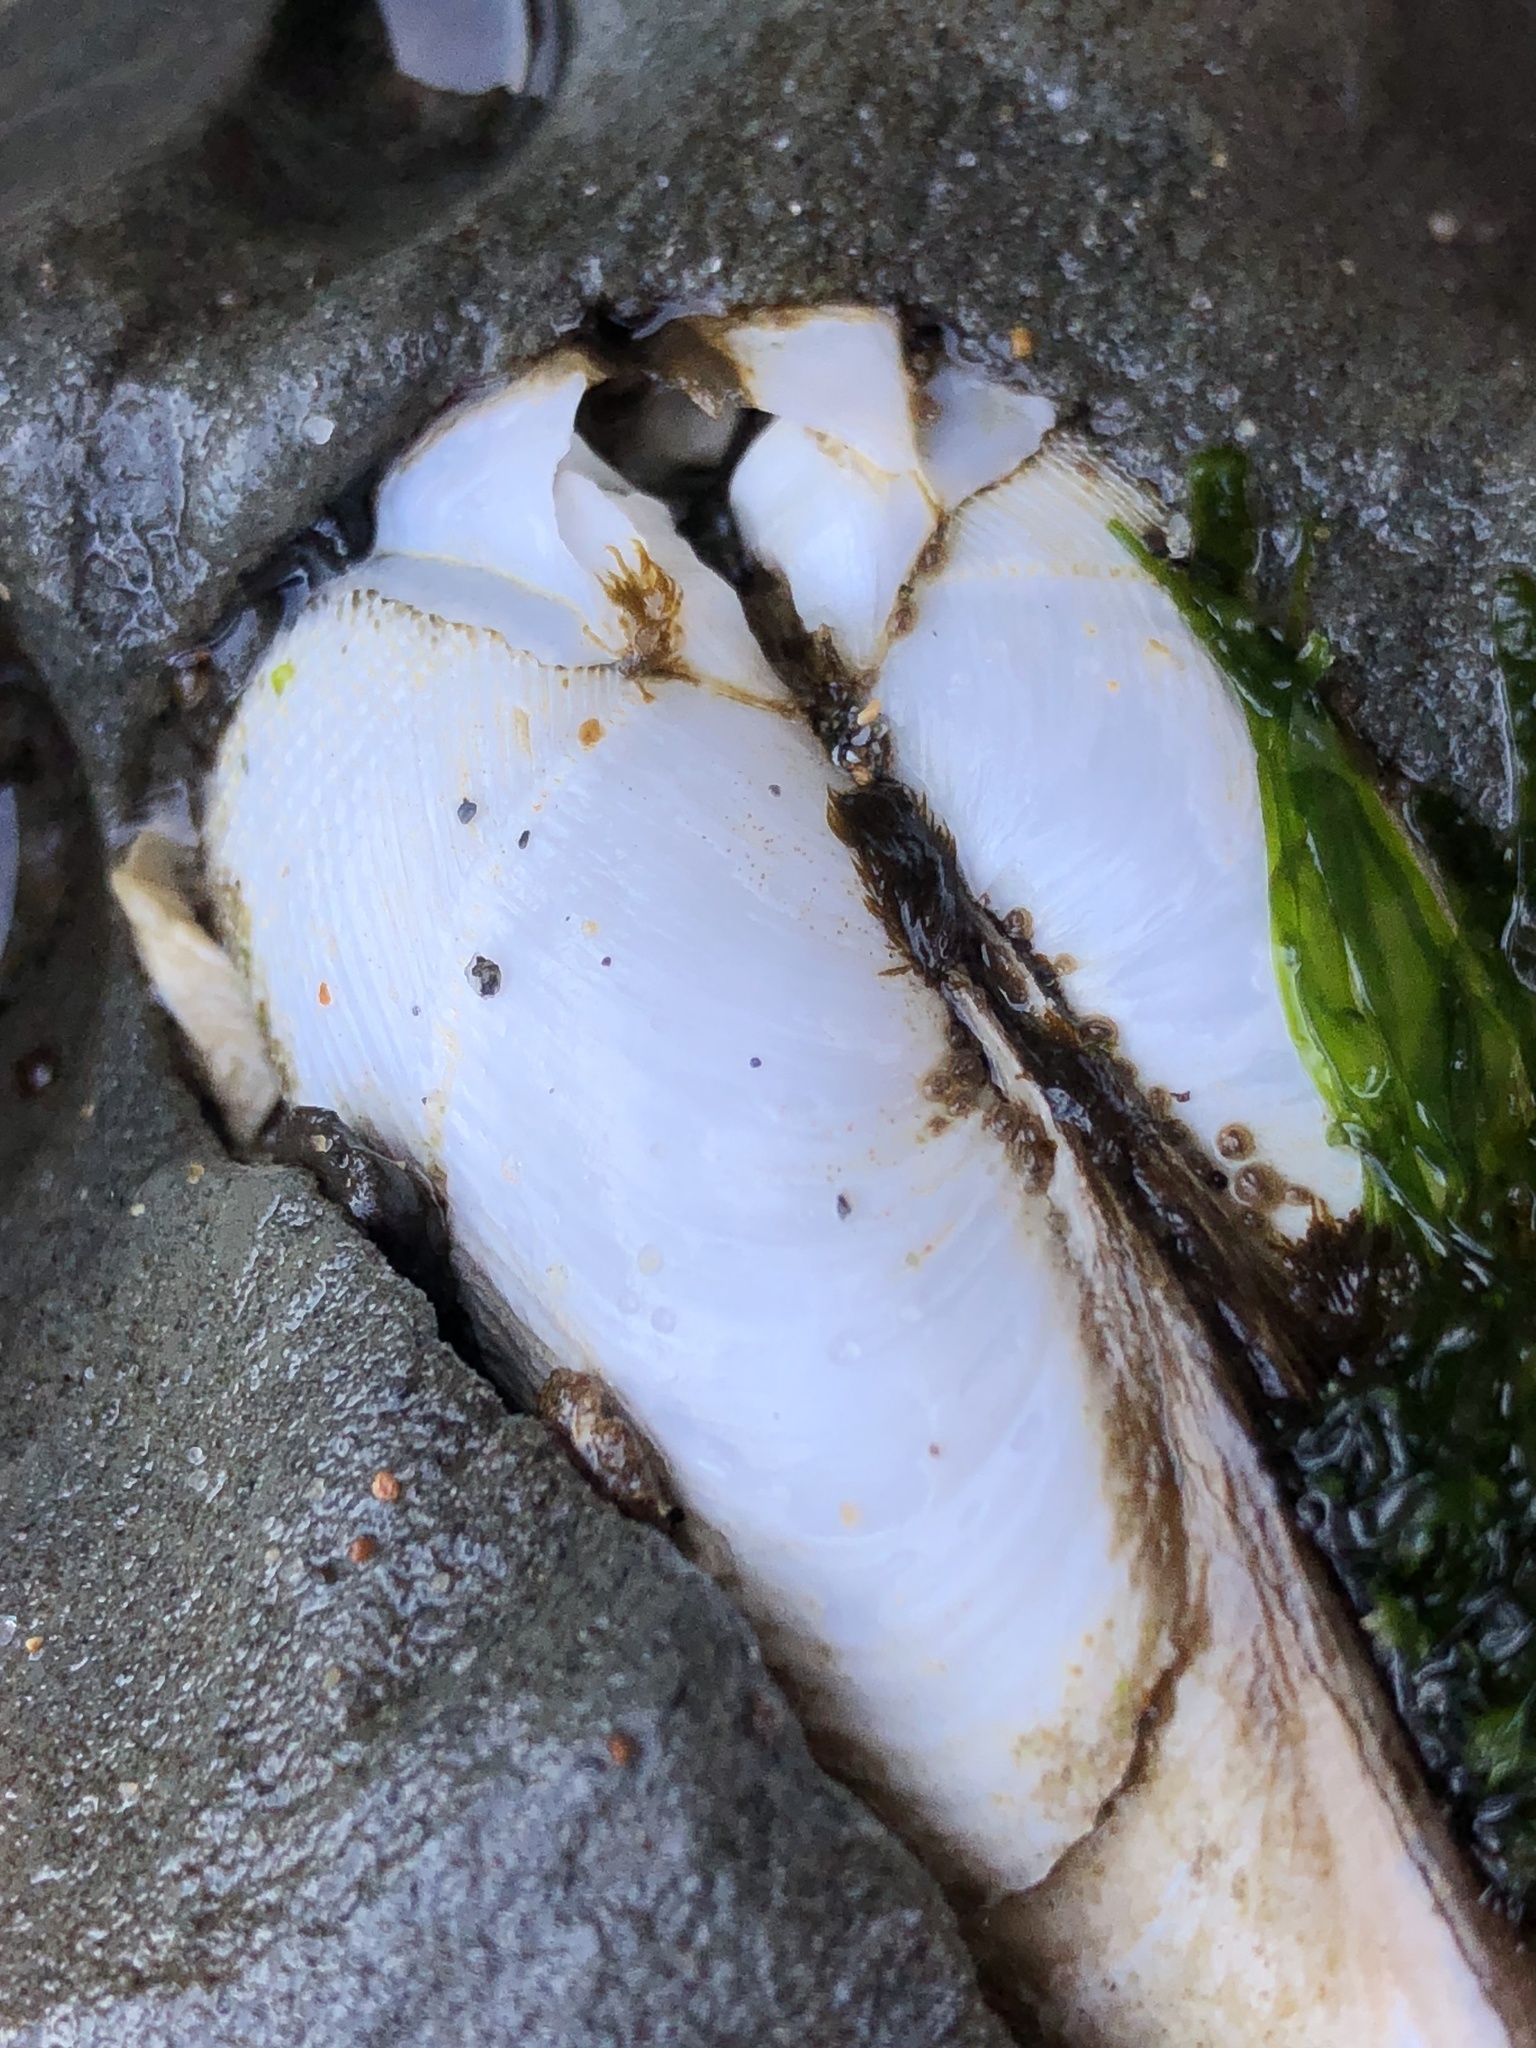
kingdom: Animalia
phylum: Mollusca
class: Bivalvia
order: Myida
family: Pholadidae
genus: Parapholas
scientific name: Parapholas californica
